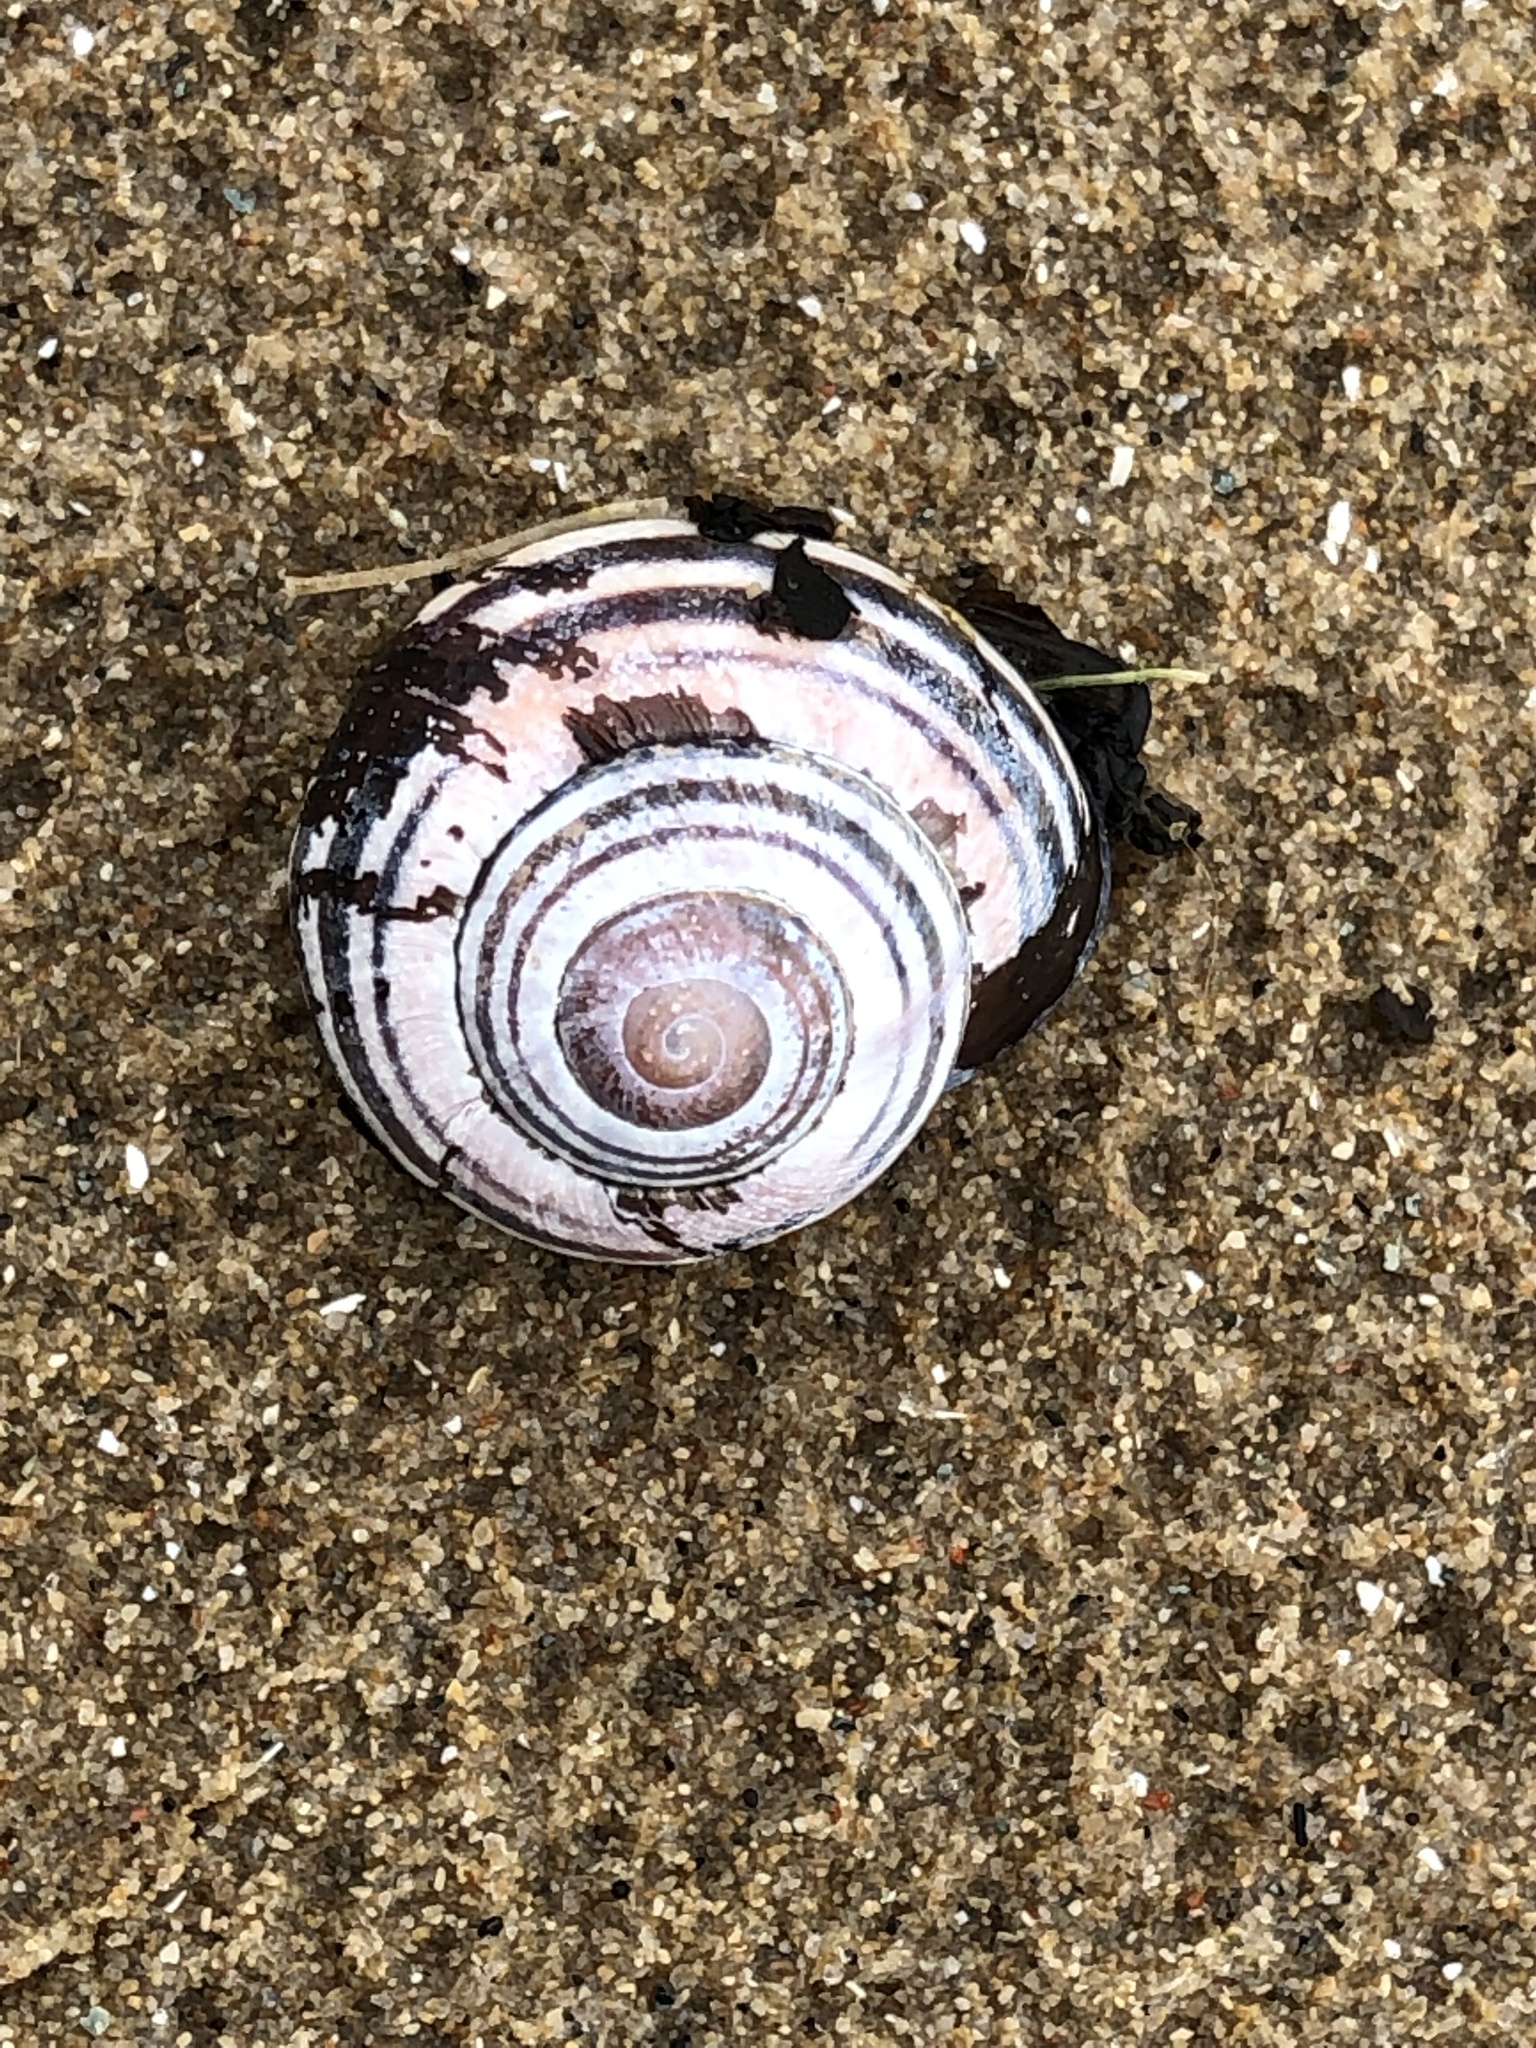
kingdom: Animalia
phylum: Mollusca
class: Gastropoda
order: Stylommatophora
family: Helicidae
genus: Cepaea
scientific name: Cepaea nemoralis
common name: Grovesnail
